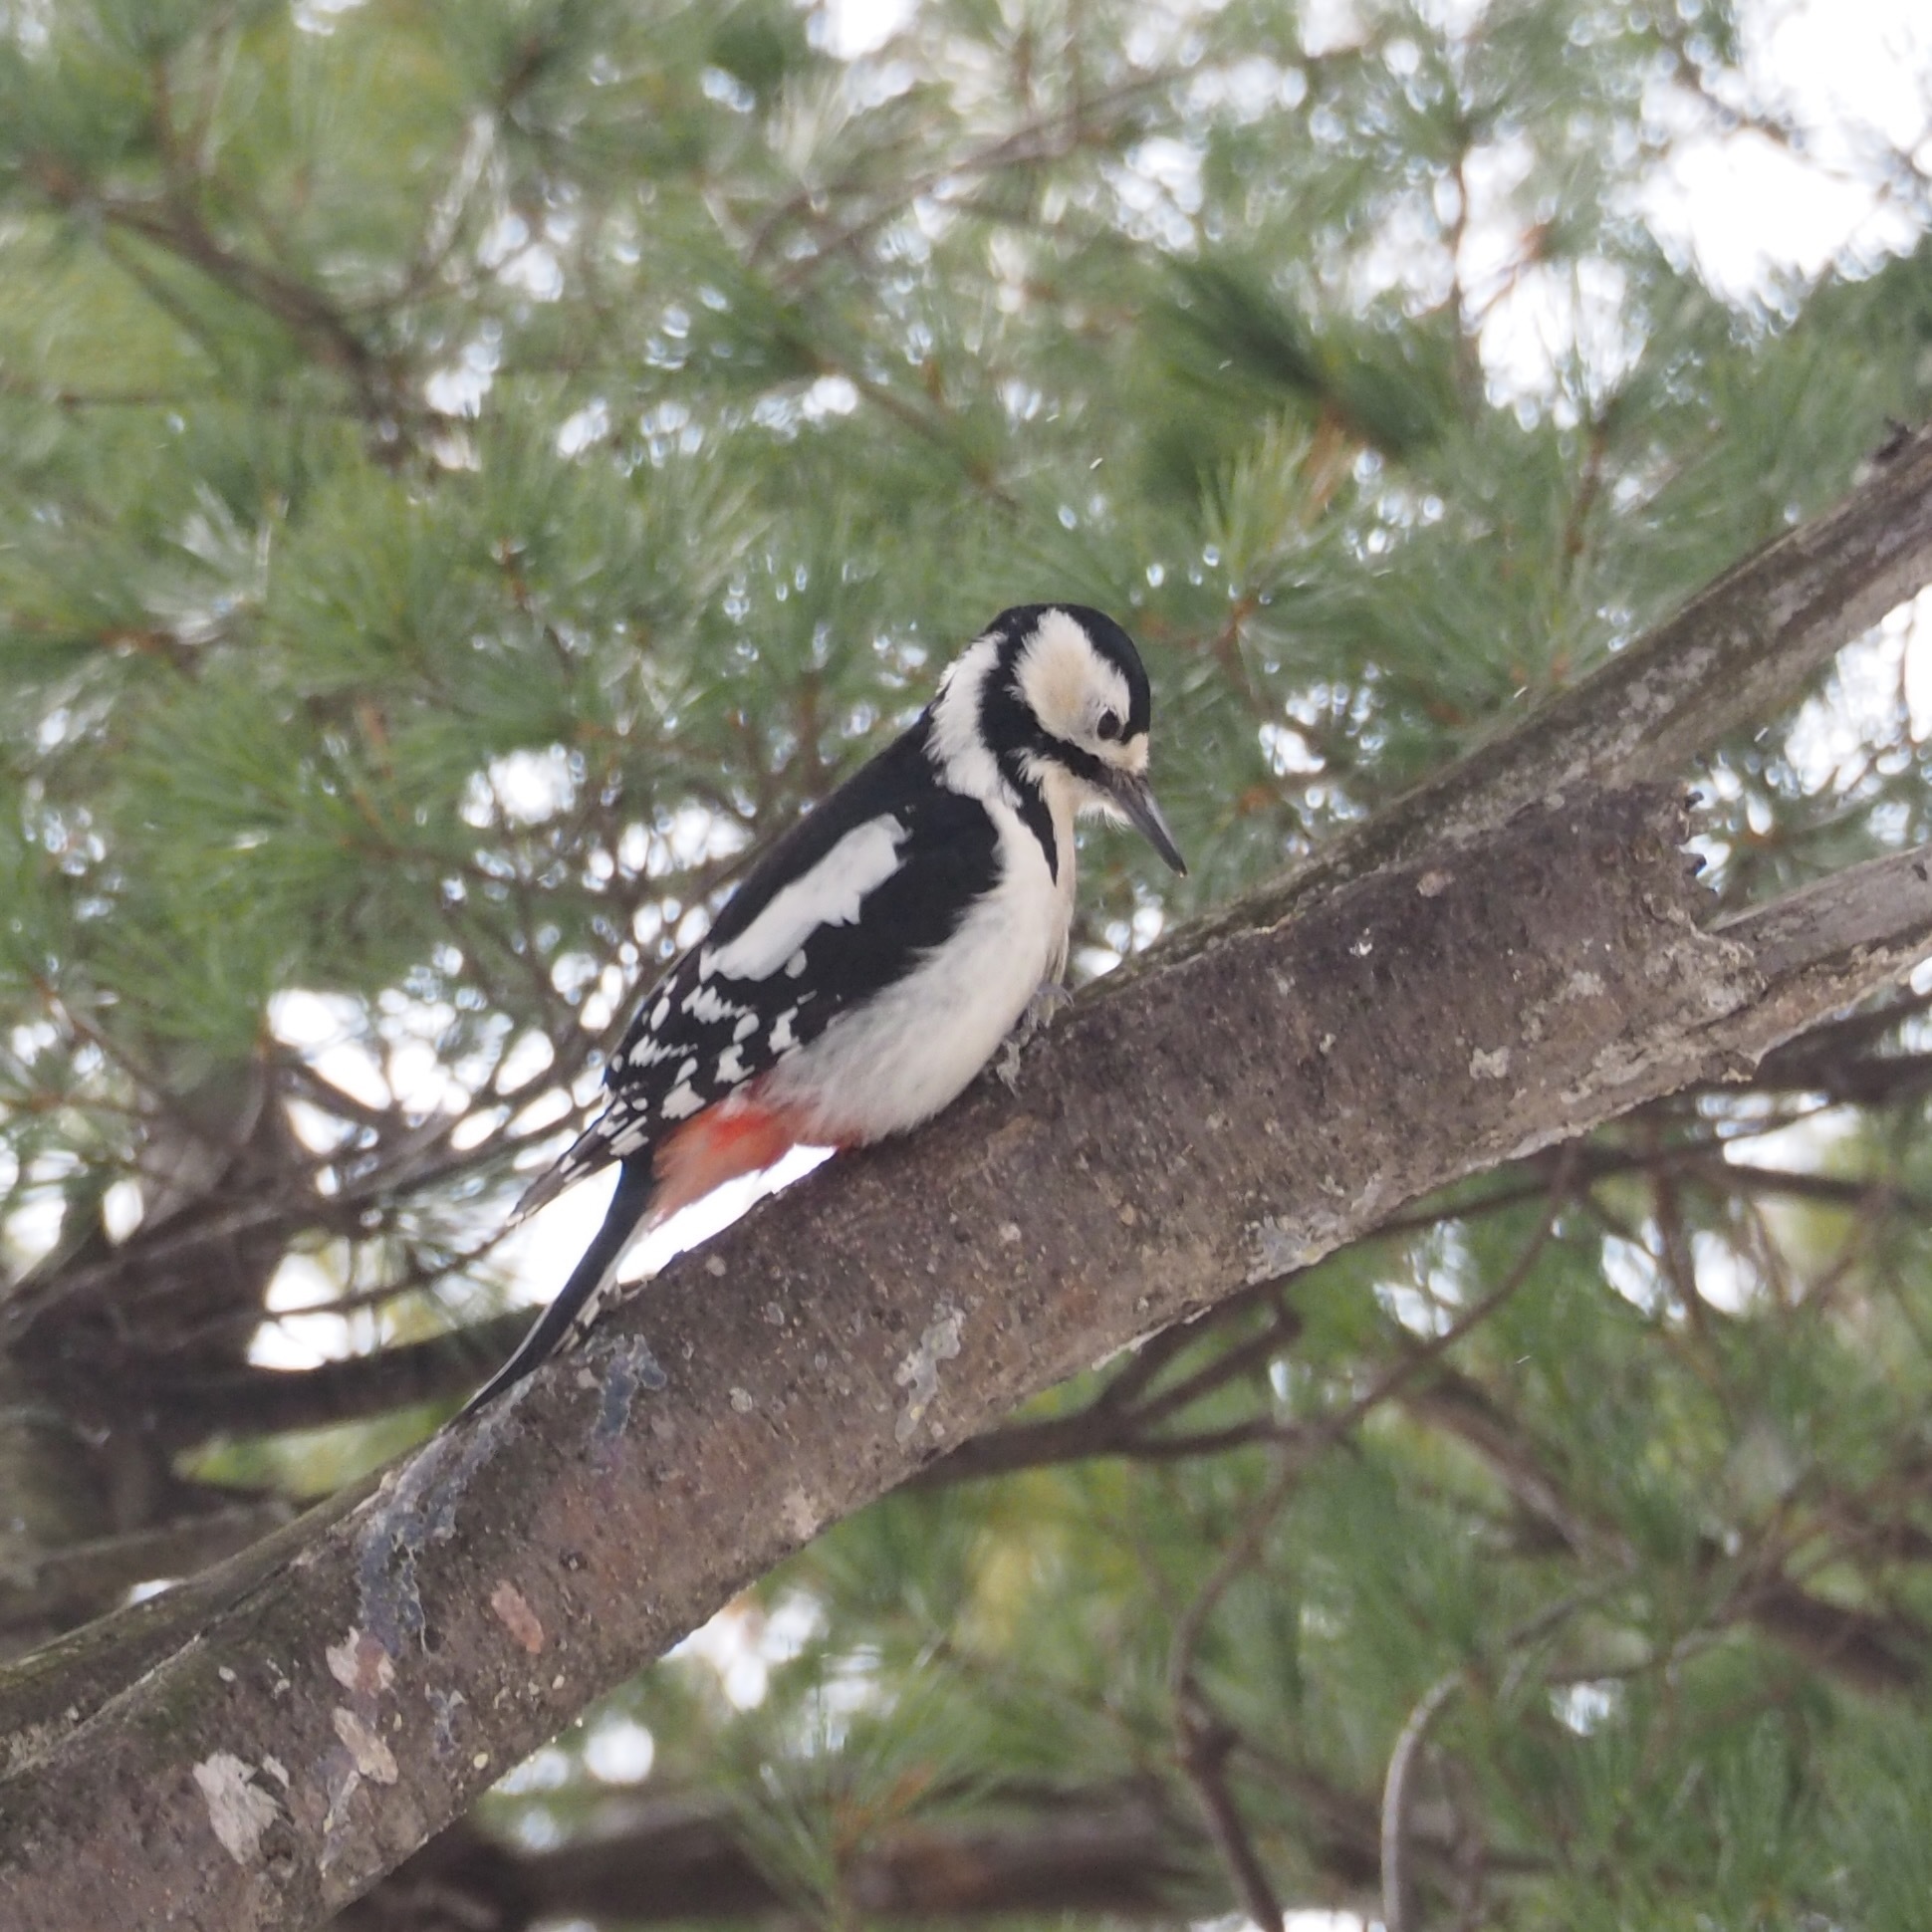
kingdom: Animalia
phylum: Chordata
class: Aves
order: Piciformes
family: Picidae
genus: Dendrocopos
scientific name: Dendrocopos major
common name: Great spotted woodpecker
